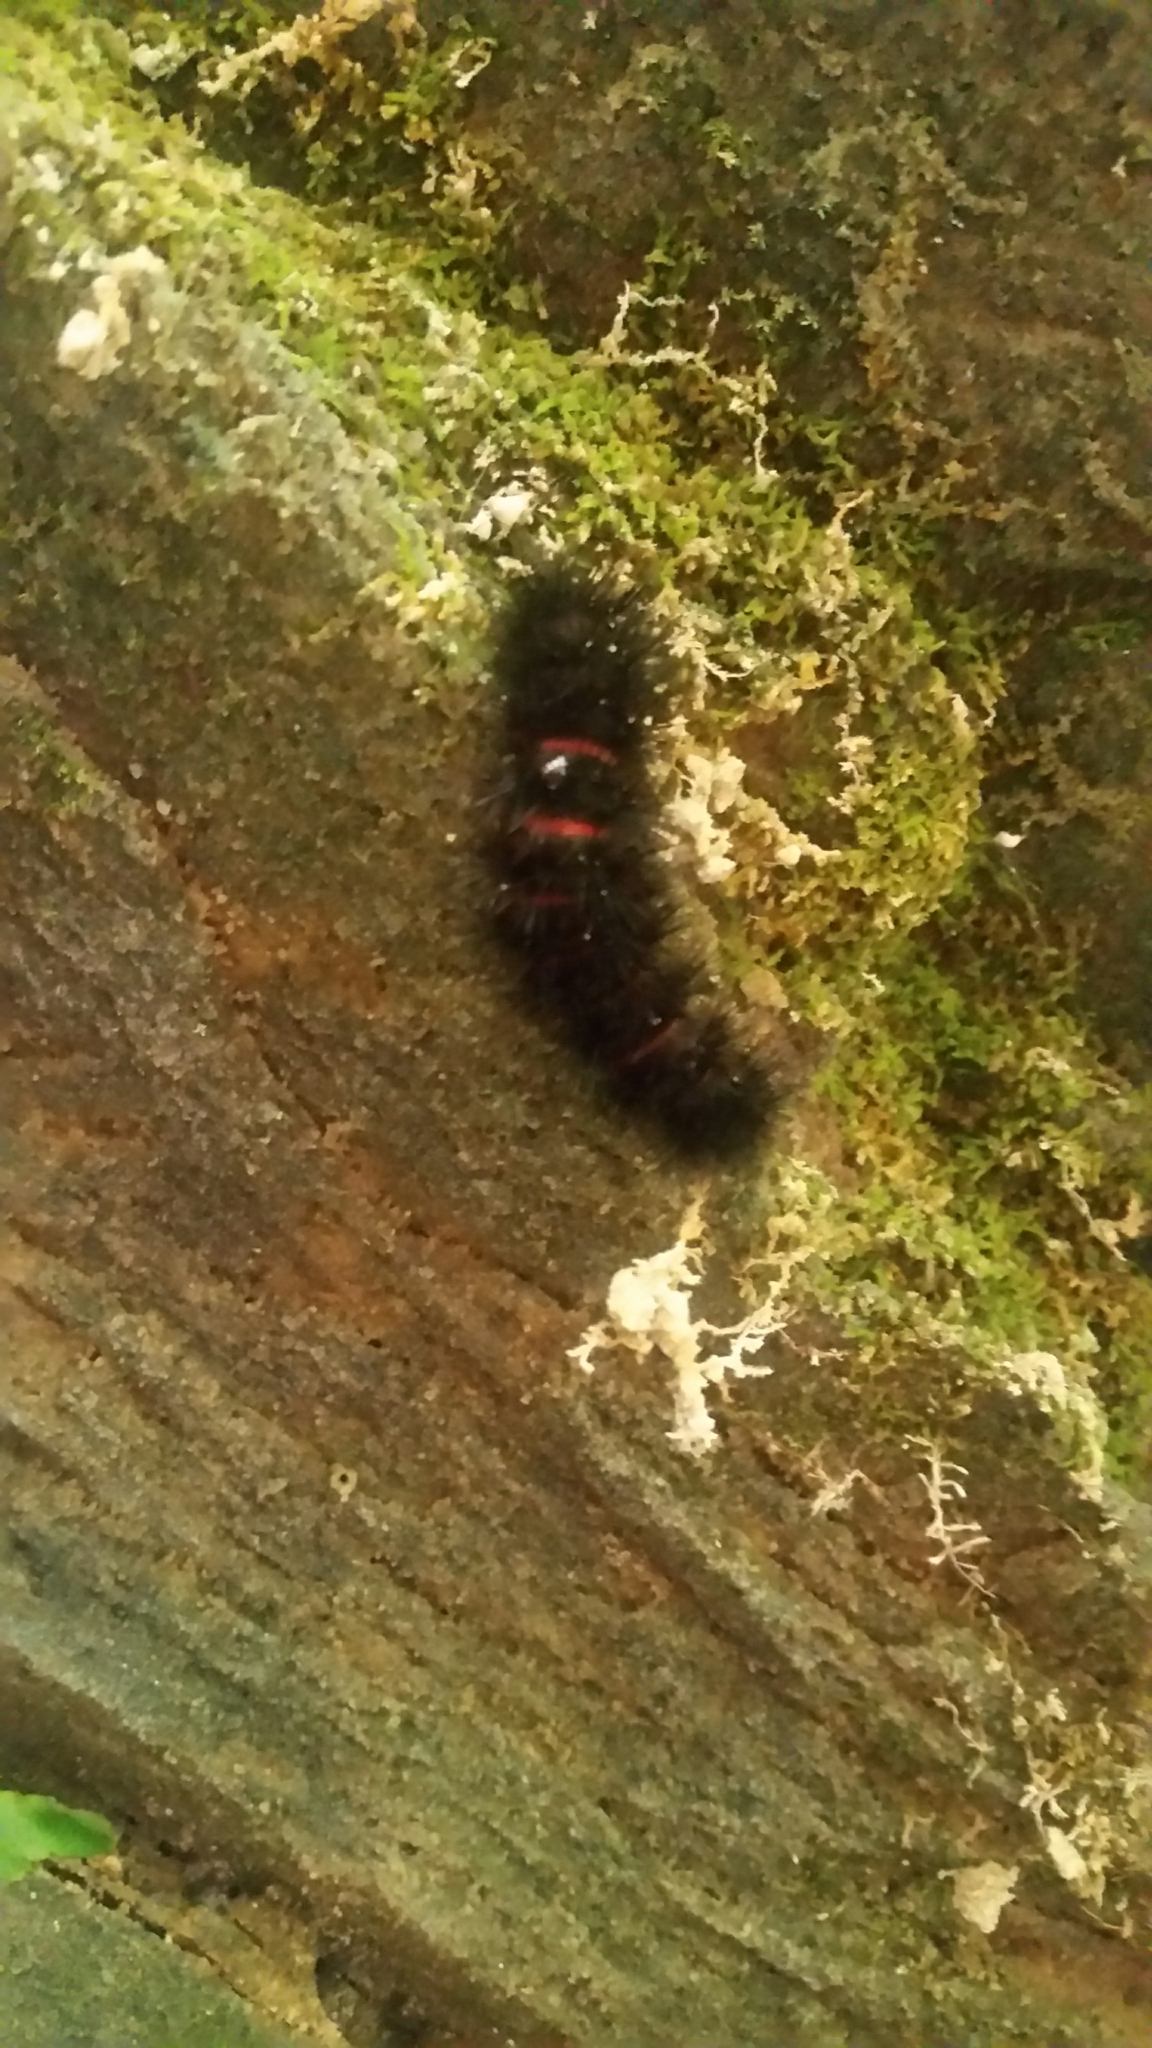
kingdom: Animalia
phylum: Arthropoda
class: Insecta
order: Lepidoptera
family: Erebidae
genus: Hypercompe
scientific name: Hypercompe scribonia
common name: Giant leopard moth
